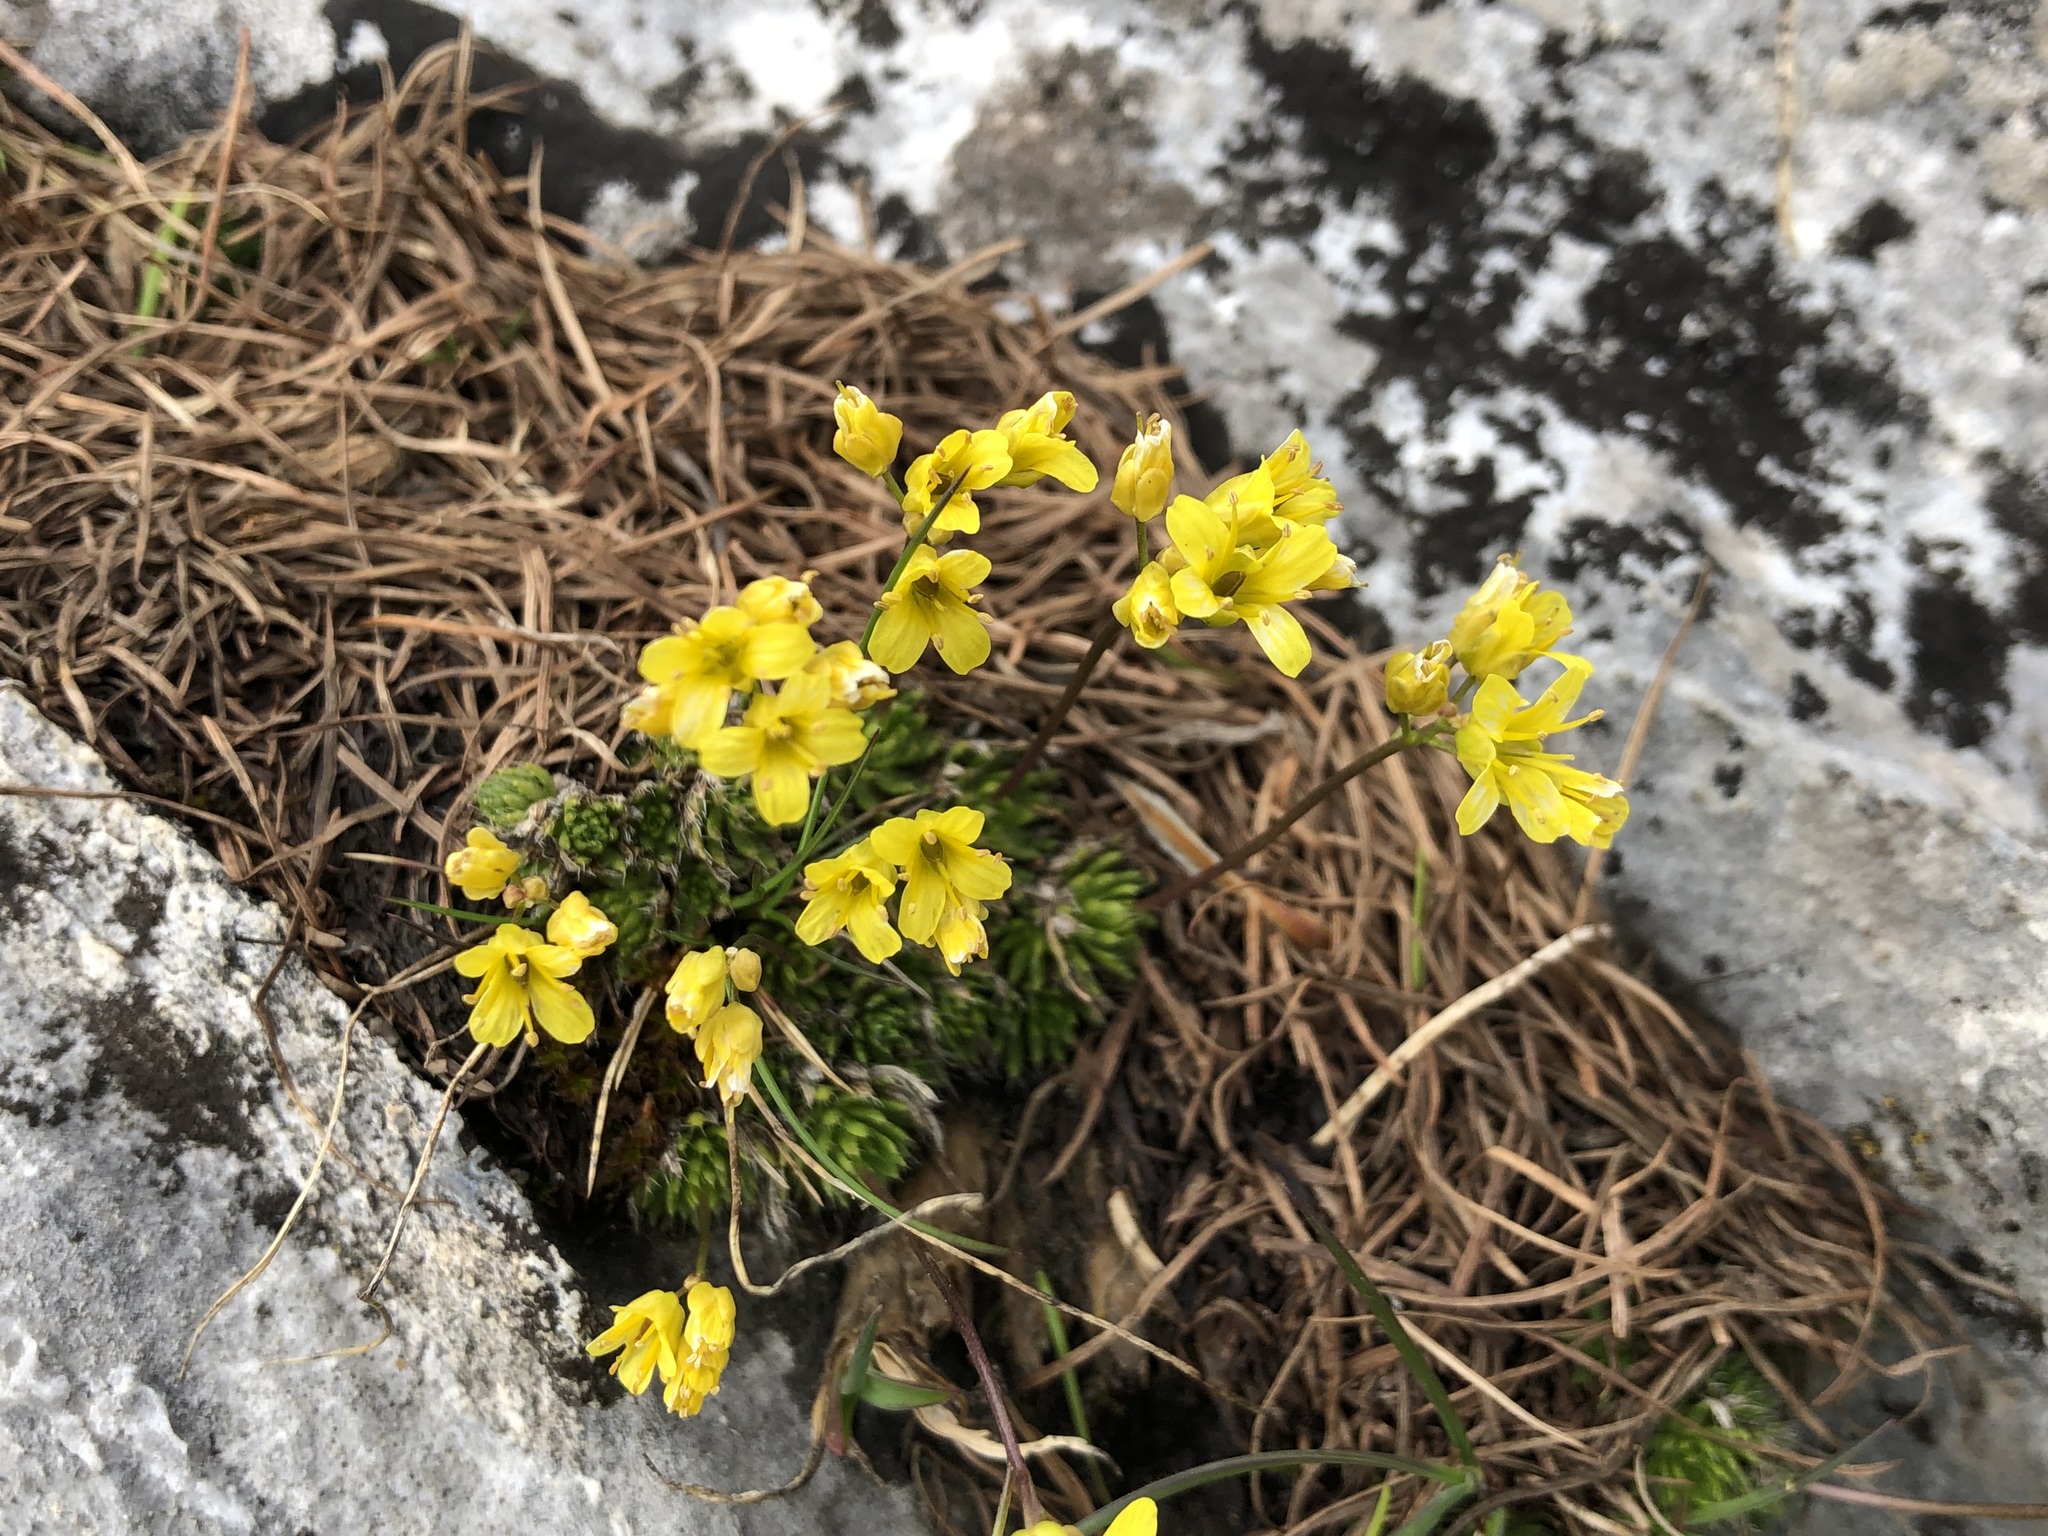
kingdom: Plantae
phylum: Tracheophyta
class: Magnoliopsida
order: Brassicales
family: Brassicaceae
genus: Draba
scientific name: Draba aizoides
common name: Yellow whitlowgrass
